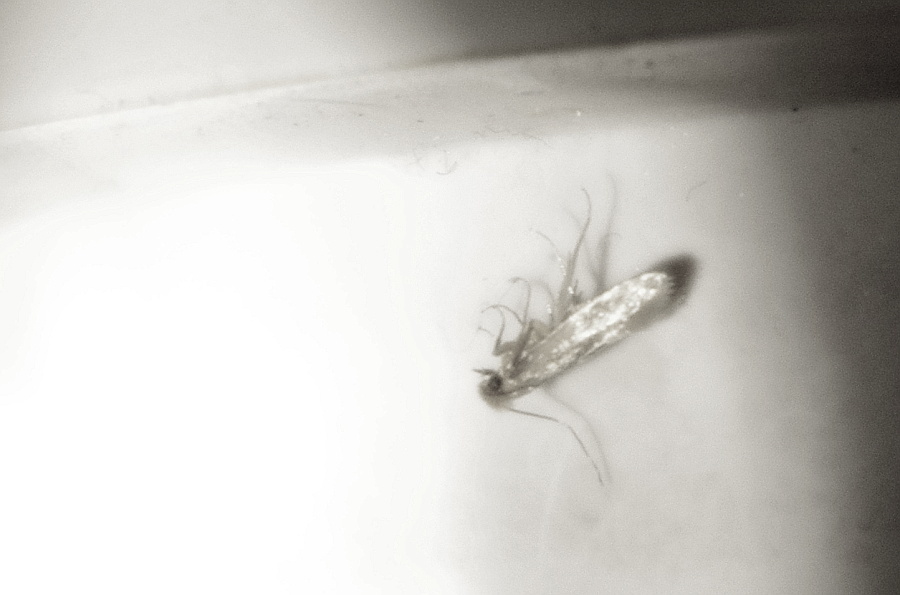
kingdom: Animalia
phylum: Arthropoda
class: Insecta
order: Lepidoptera
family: Tineidae
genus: Tineola
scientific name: Tineola bisselliella
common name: Webbing clothes moth
